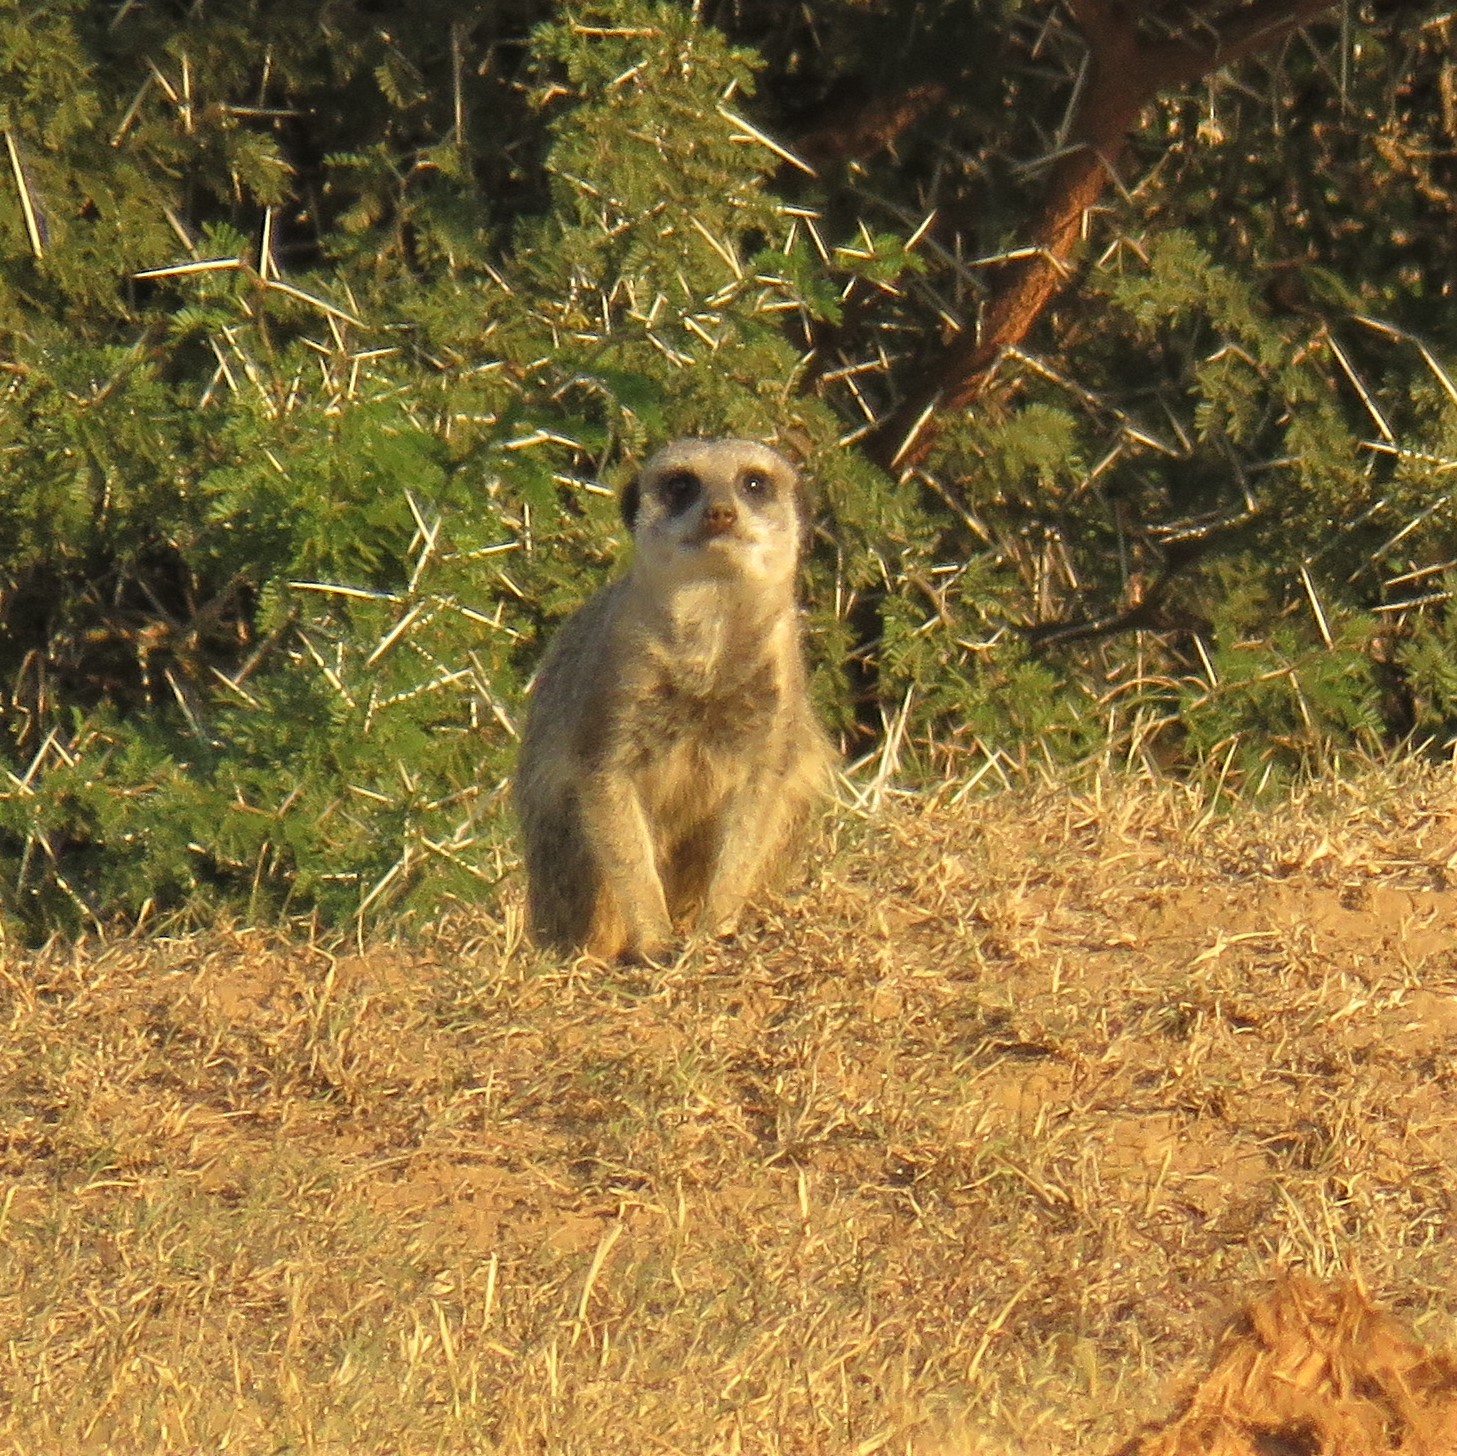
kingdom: Animalia
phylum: Chordata
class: Mammalia
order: Carnivora
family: Herpestidae
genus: Suricata
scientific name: Suricata suricatta
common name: Meerkat
